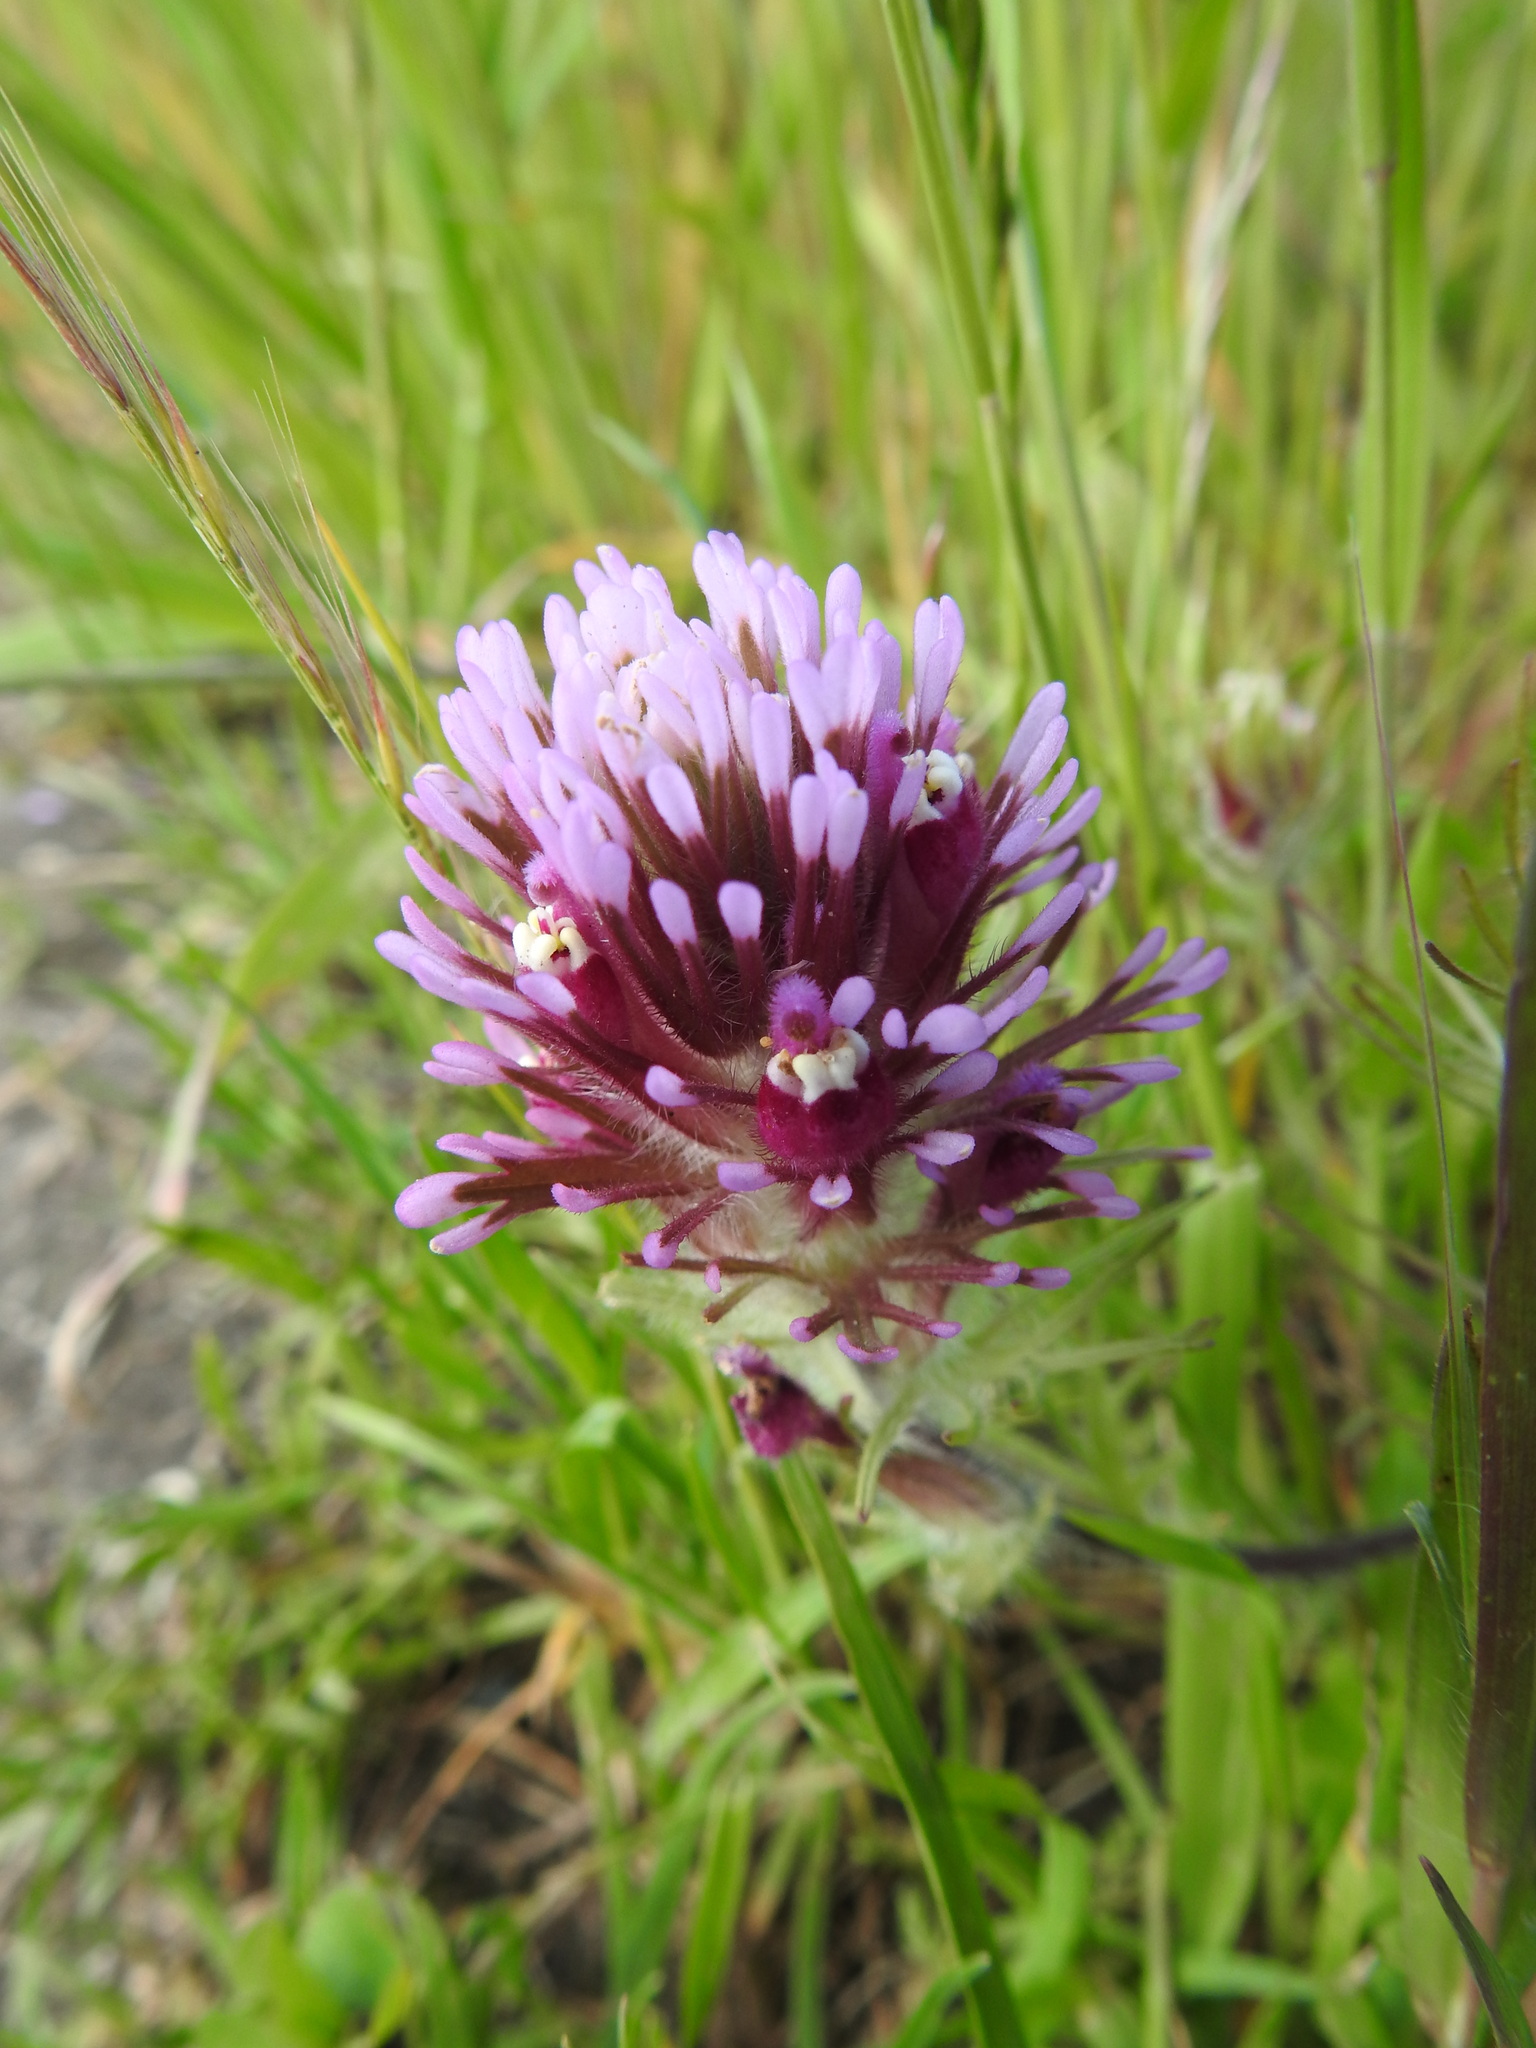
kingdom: Plantae
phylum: Tracheophyta
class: Magnoliopsida
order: Lamiales
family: Orobanchaceae
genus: Castilleja
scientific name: Castilleja exserta
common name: Purple owl-clover
